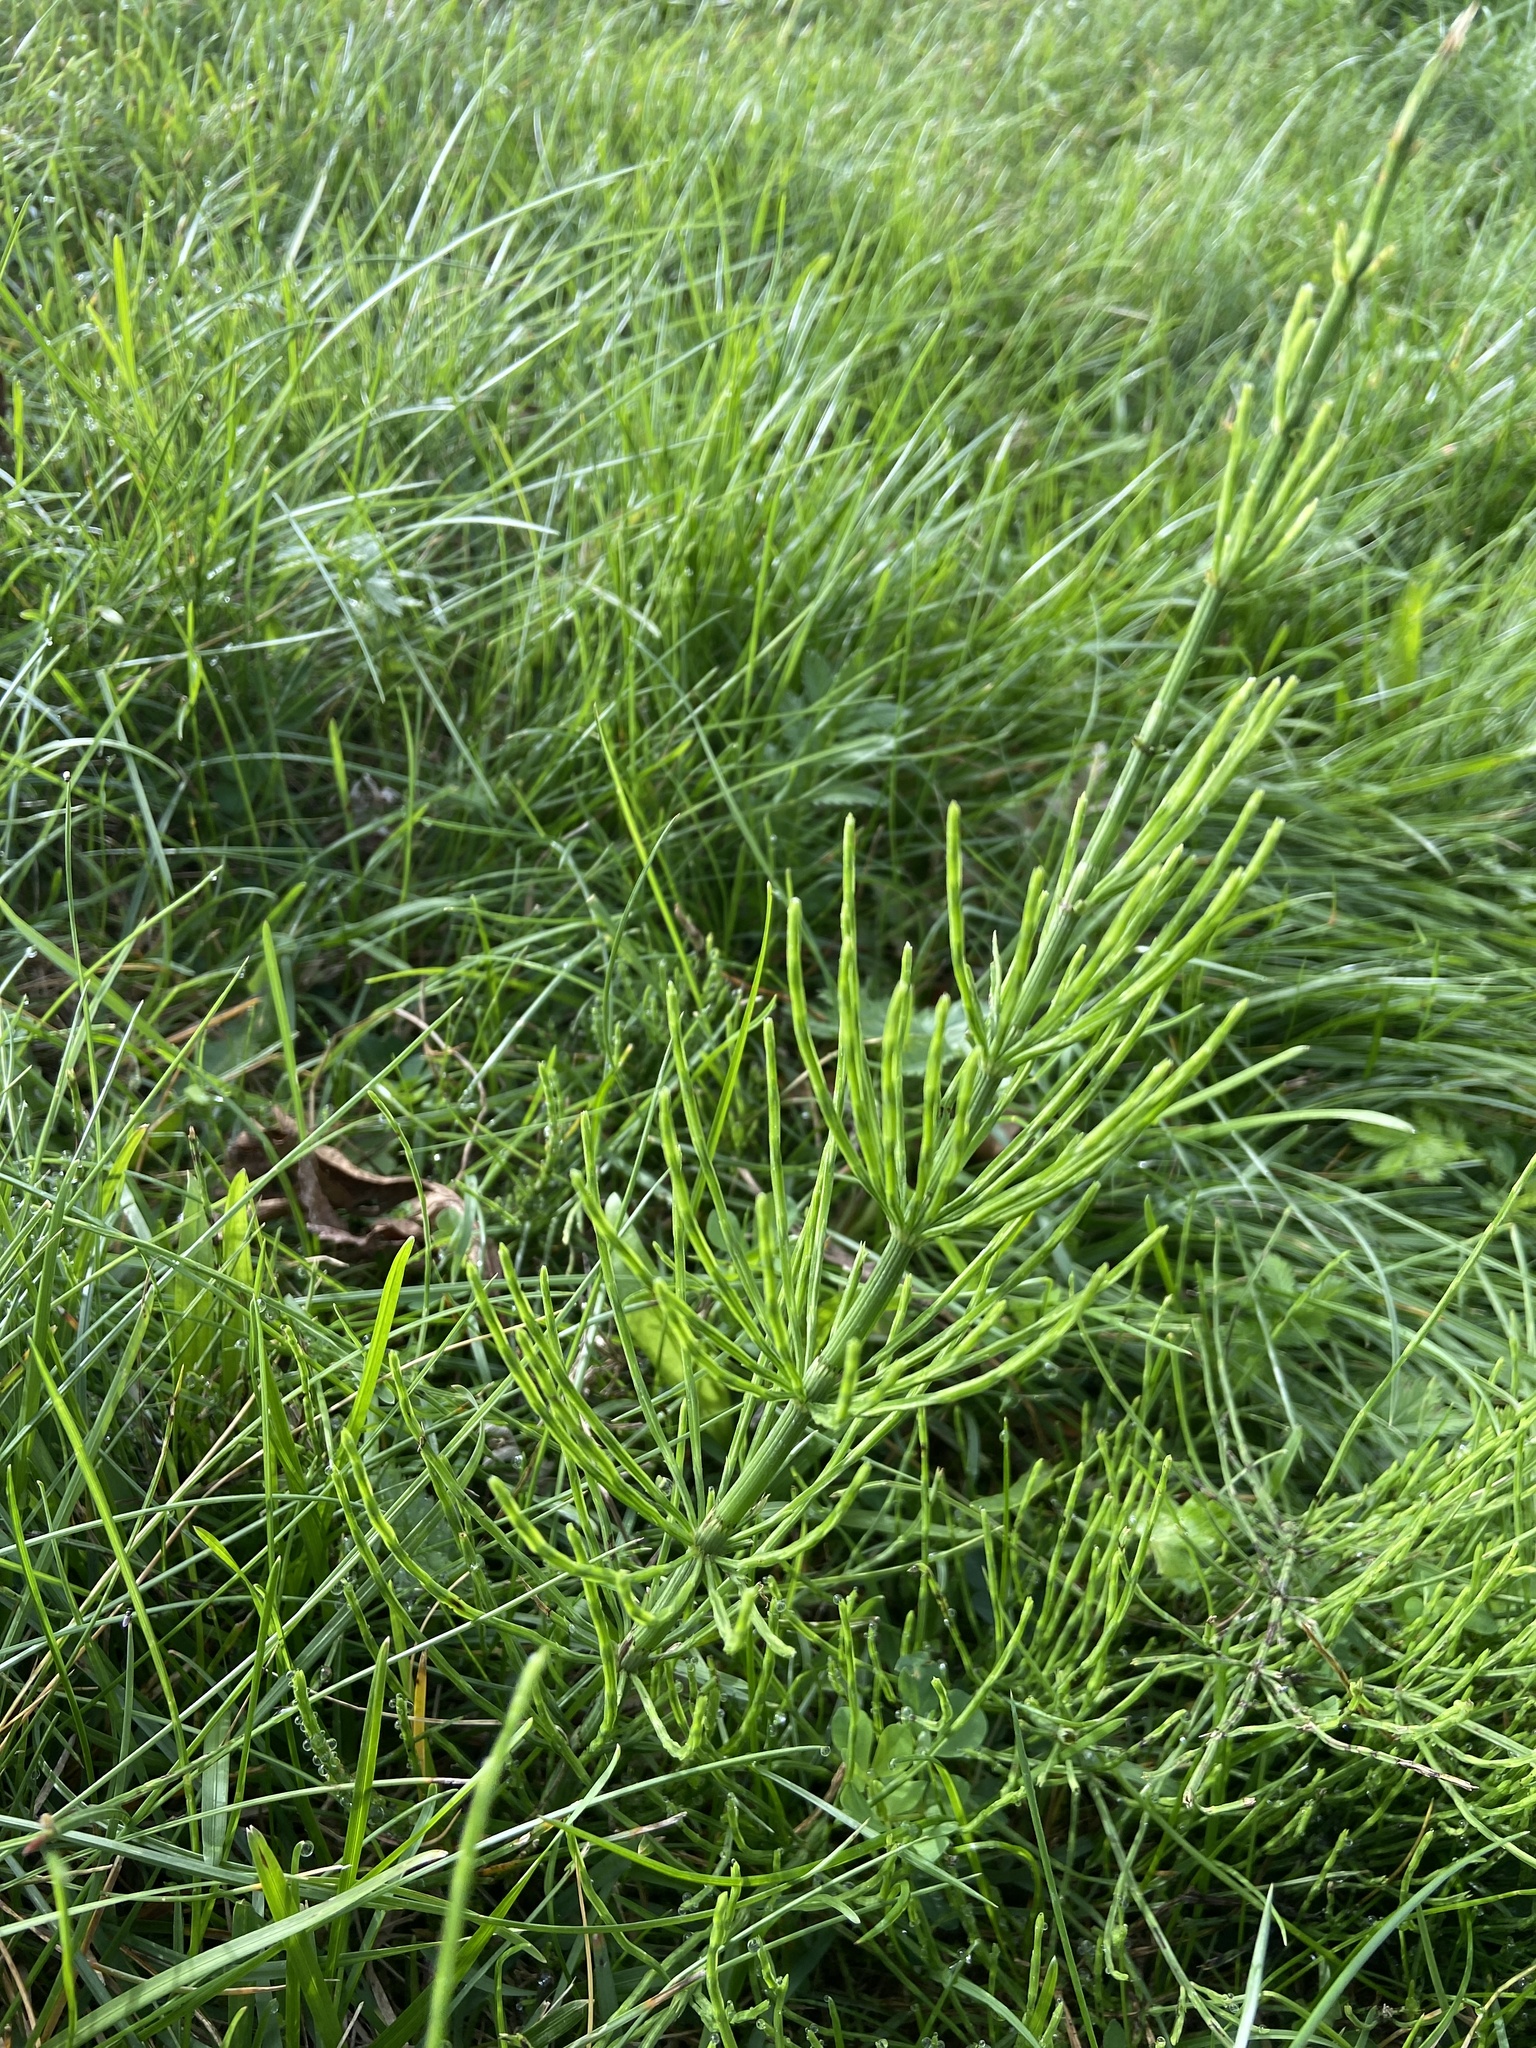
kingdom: Plantae
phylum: Tracheophyta
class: Polypodiopsida
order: Equisetales
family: Equisetaceae
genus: Equisetum
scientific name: Equisetum arvense
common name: Field horsetail
